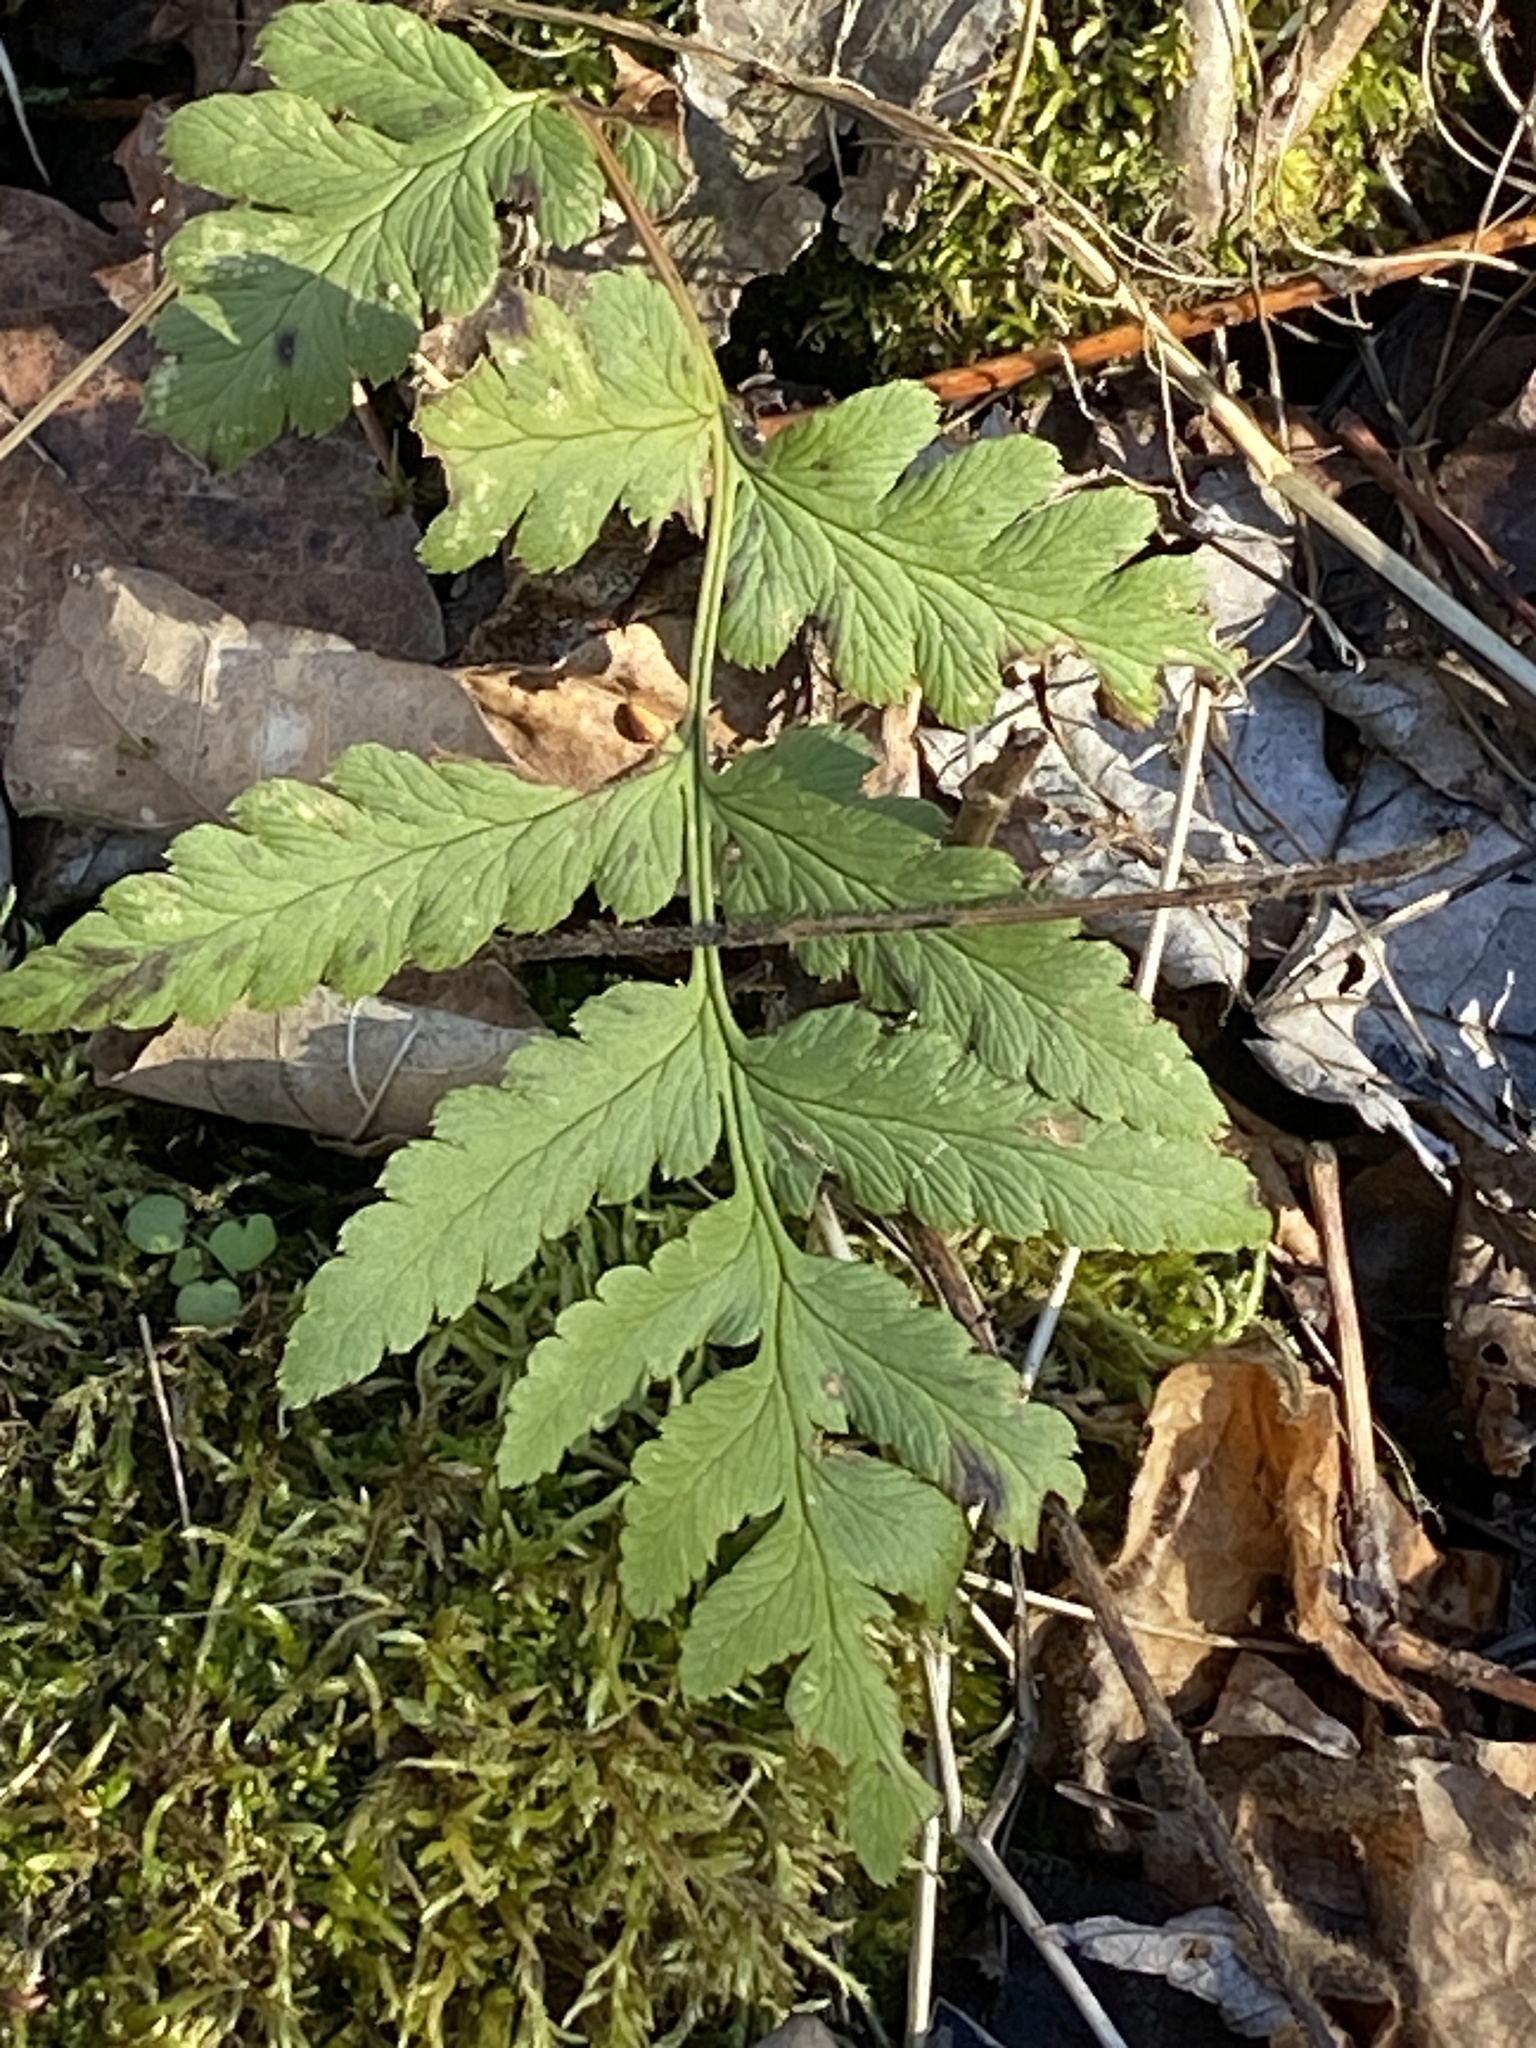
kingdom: Plantae
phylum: Tracheophyta
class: Polypodiopsida
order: Polypodiales
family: Dryopteridaceae
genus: Dryopteris
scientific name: Dryopteris cristata
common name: Crested wood fern
